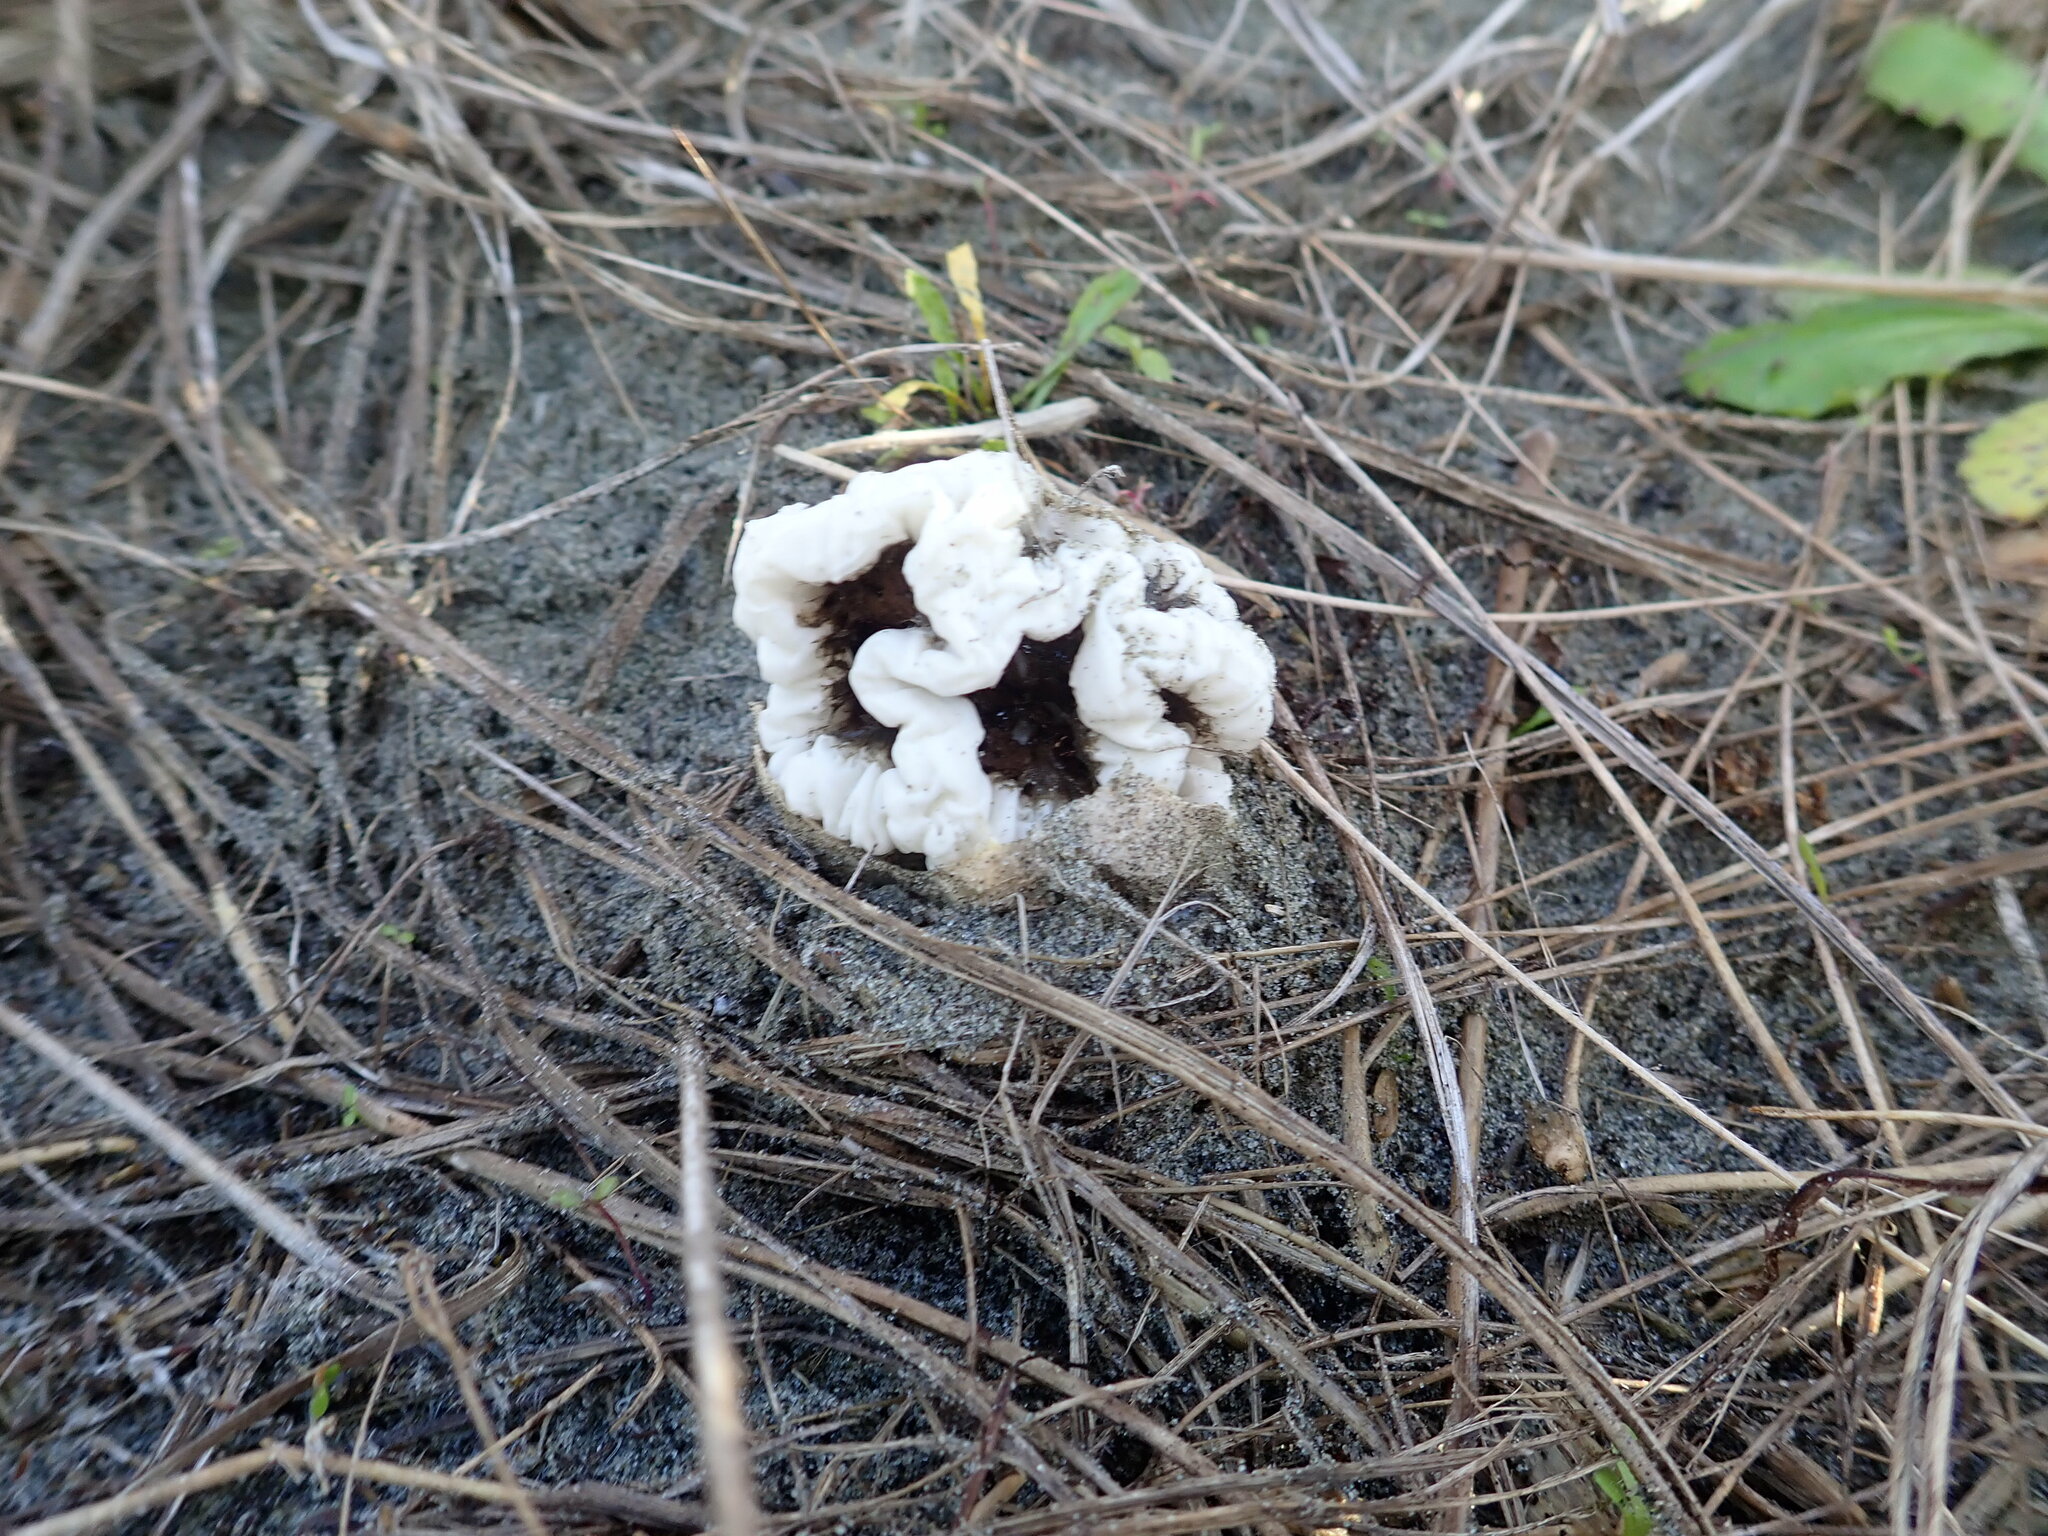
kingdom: Fungi
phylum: Basidiomycota
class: Agaricomycetes
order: Phallales
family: Phallaceae
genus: Ileodictyon
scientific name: Ileodictyon cibarium
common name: Basket fungus
